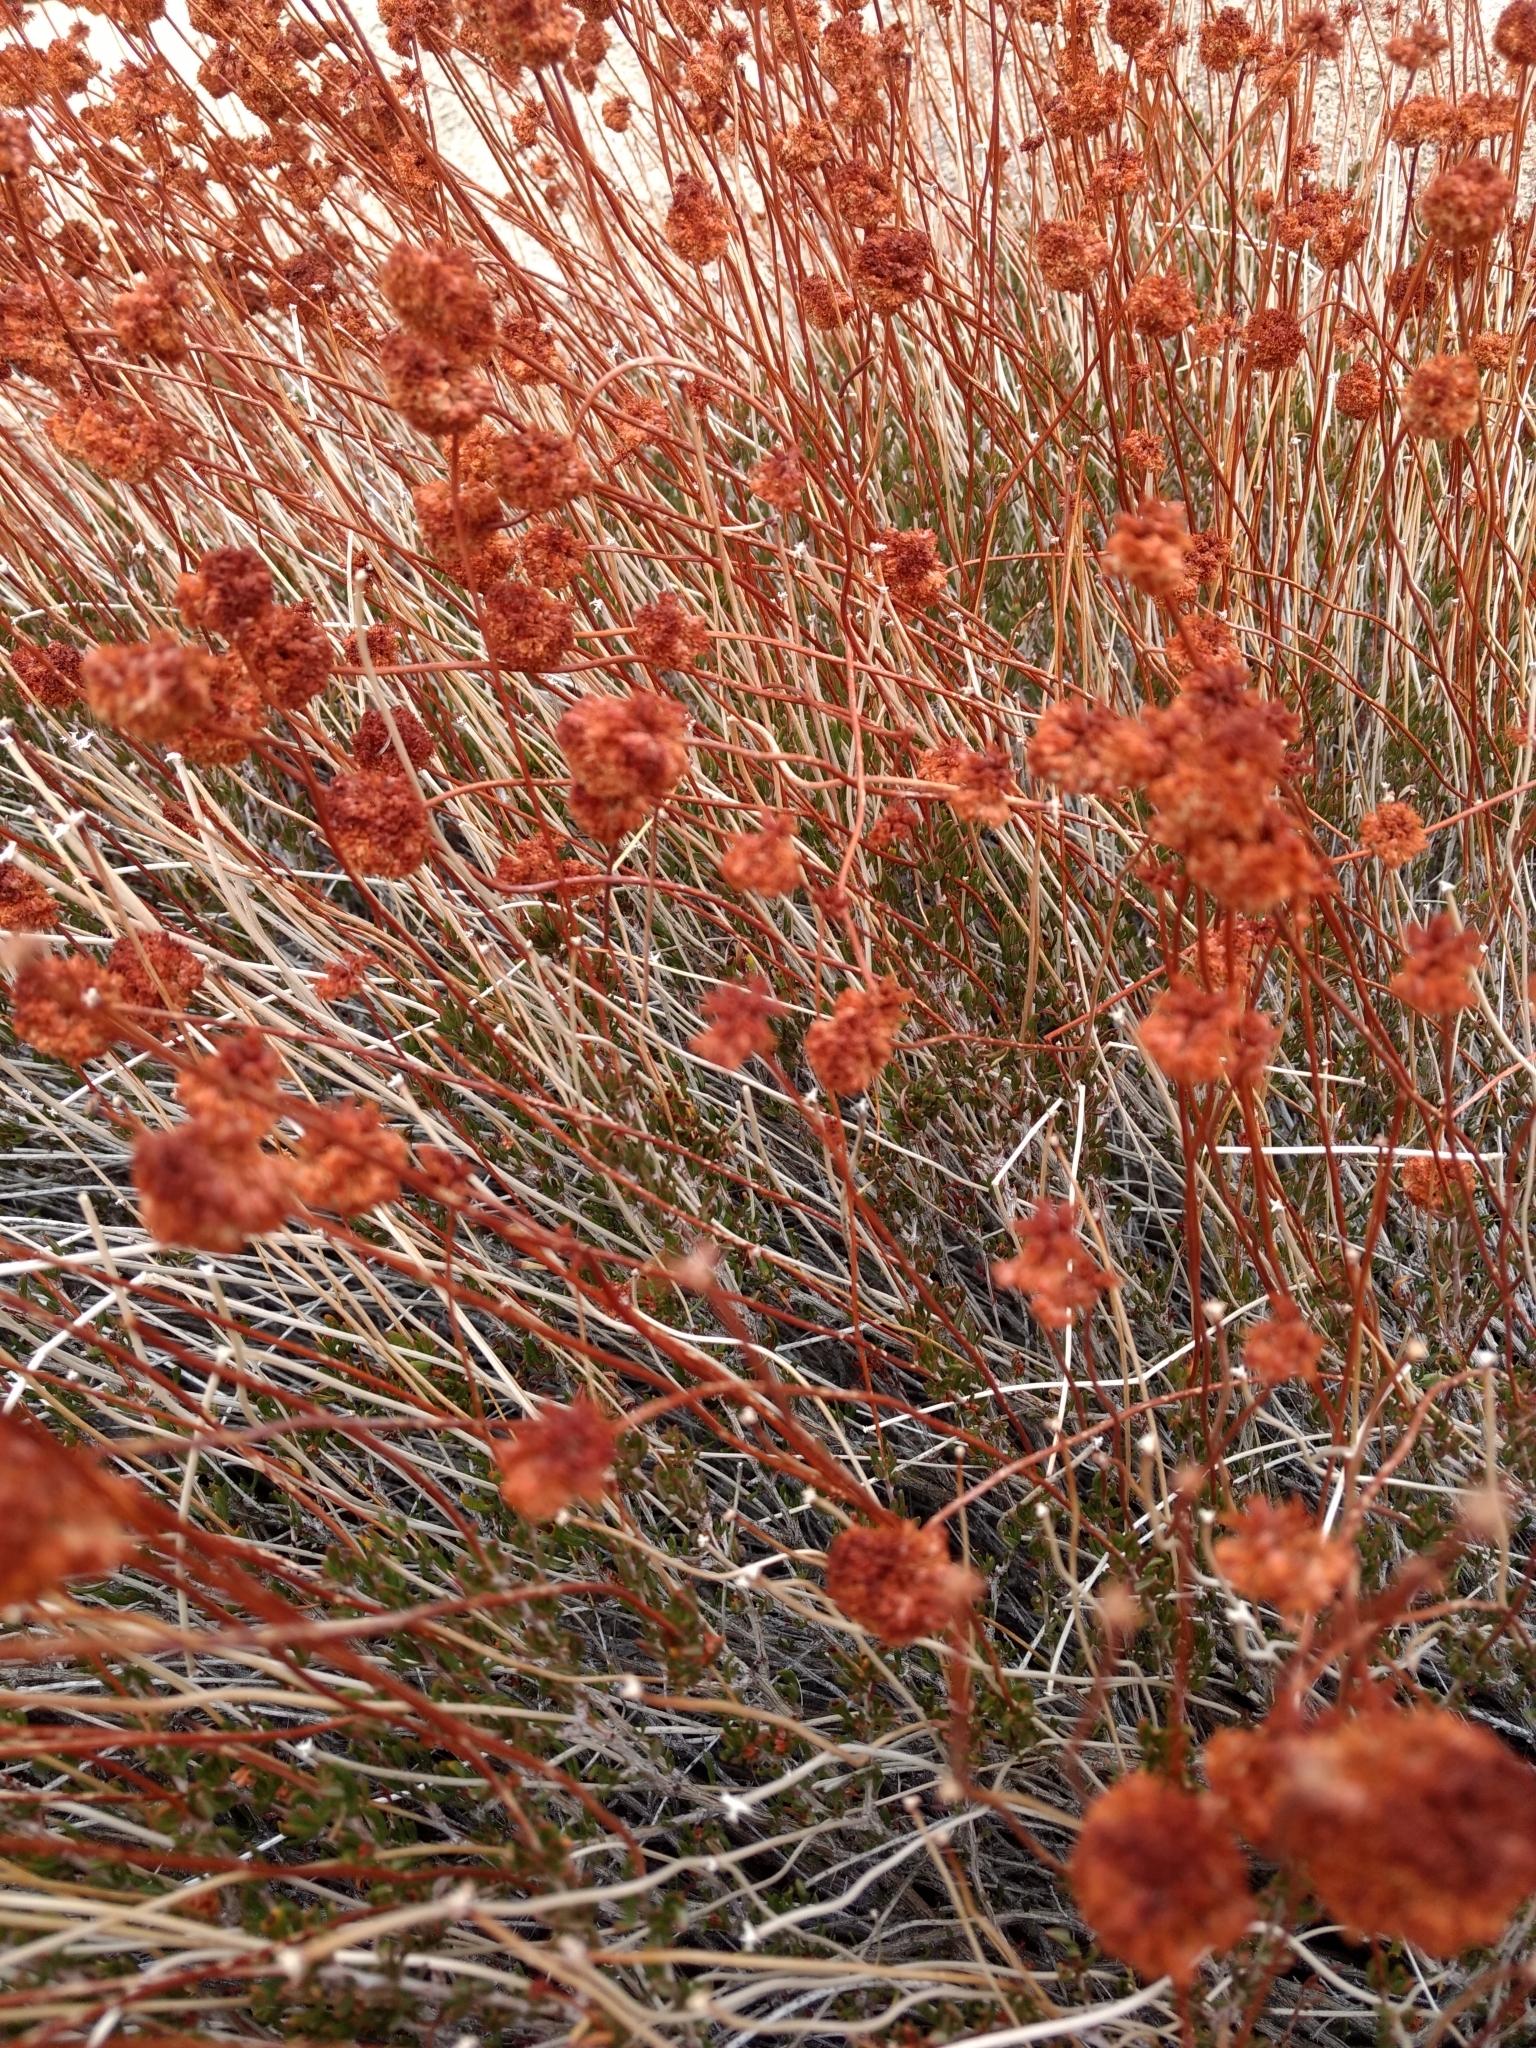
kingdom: Plantae
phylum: Tracheophyta
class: Magnoliopsida
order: Caryophyllales
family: Polygonaceae
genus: Eriogonum
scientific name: Eriogonum fasciculatum
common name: California wild buckwheat
